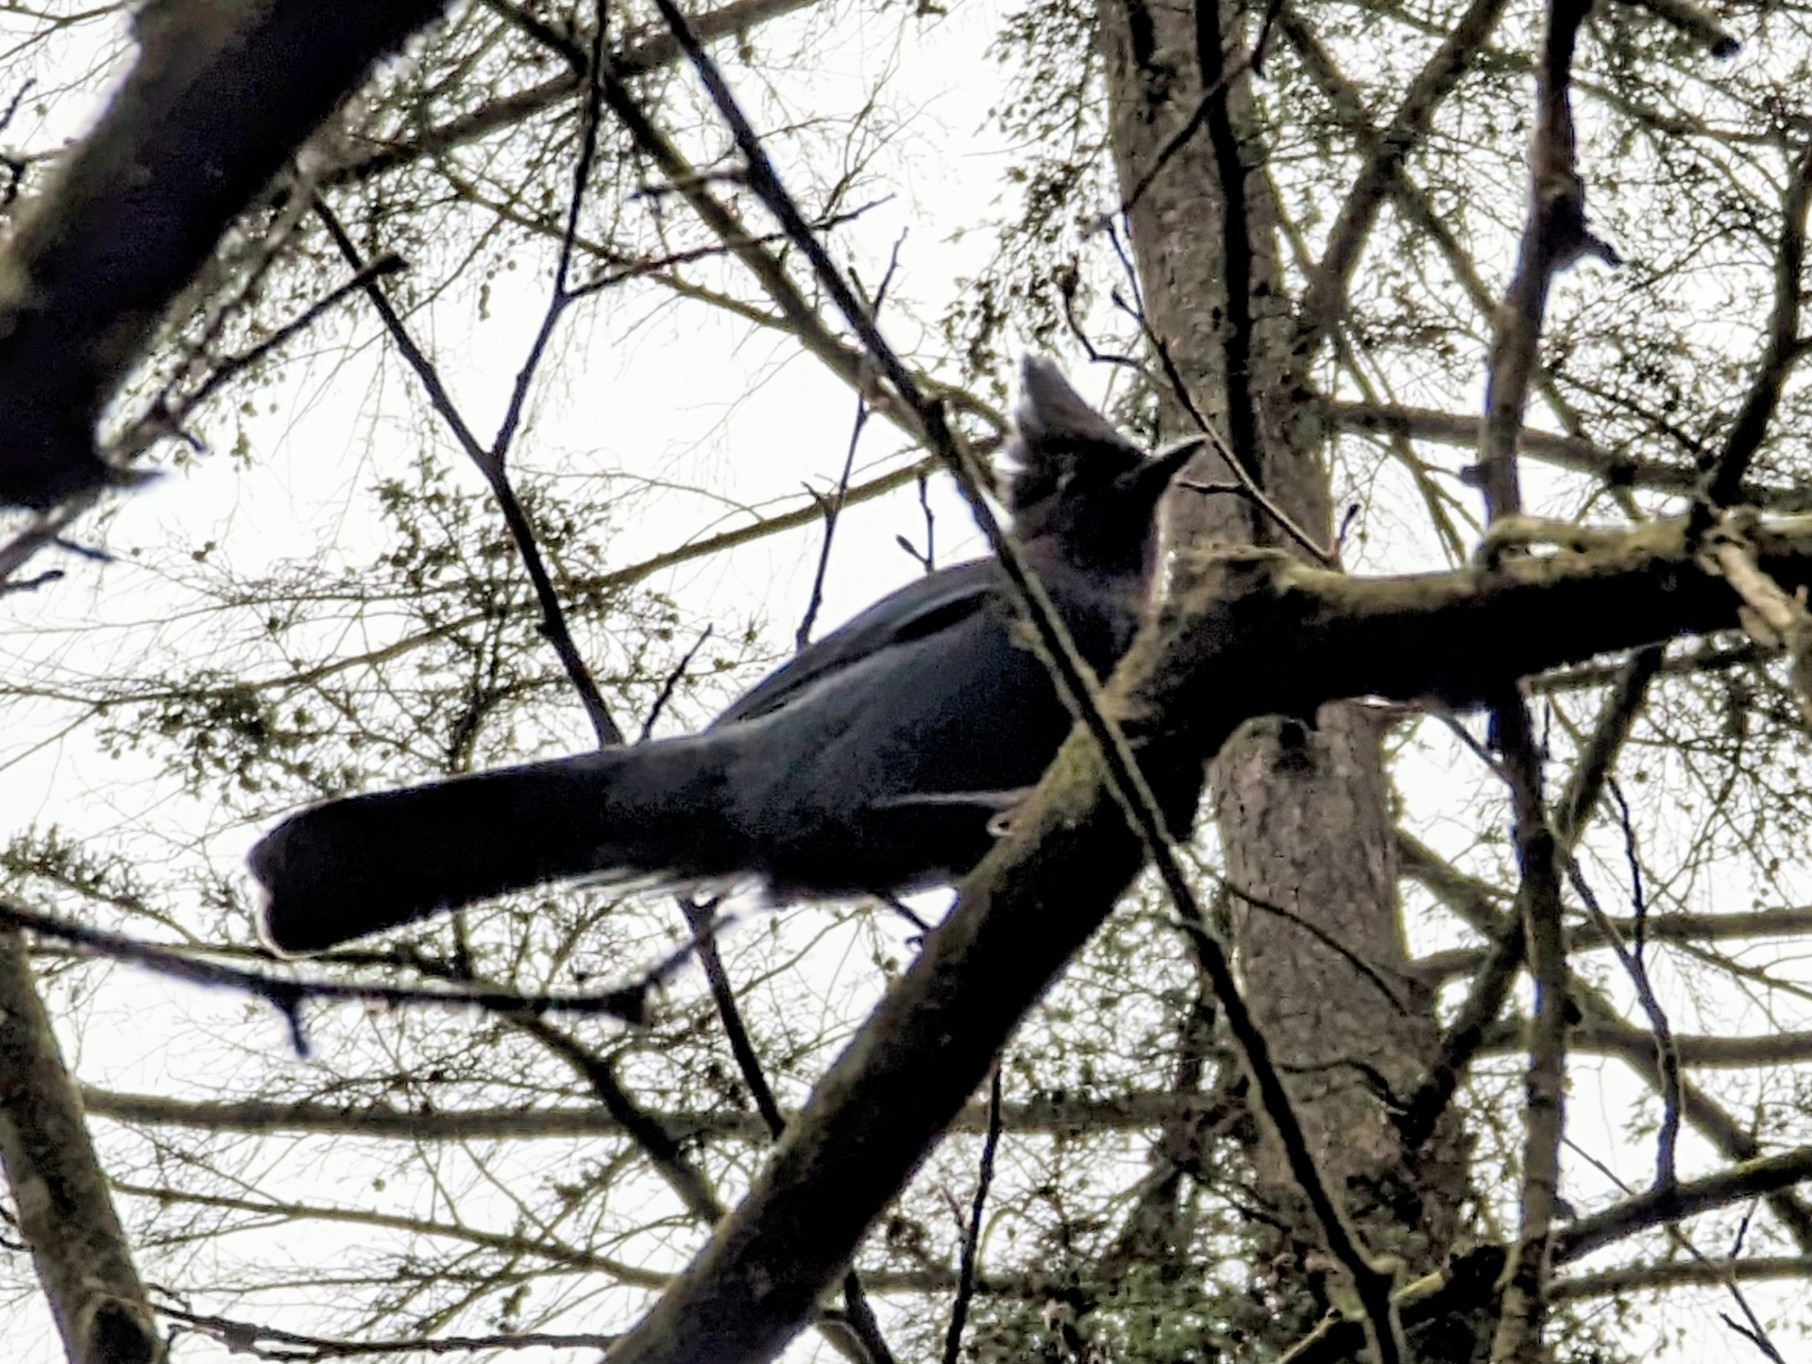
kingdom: Animalia
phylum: Chordata
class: Aves
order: Passeriformes
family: Corvidae
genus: Cyanocitta
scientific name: Cyanocitta stelleri
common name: Steller's jay
